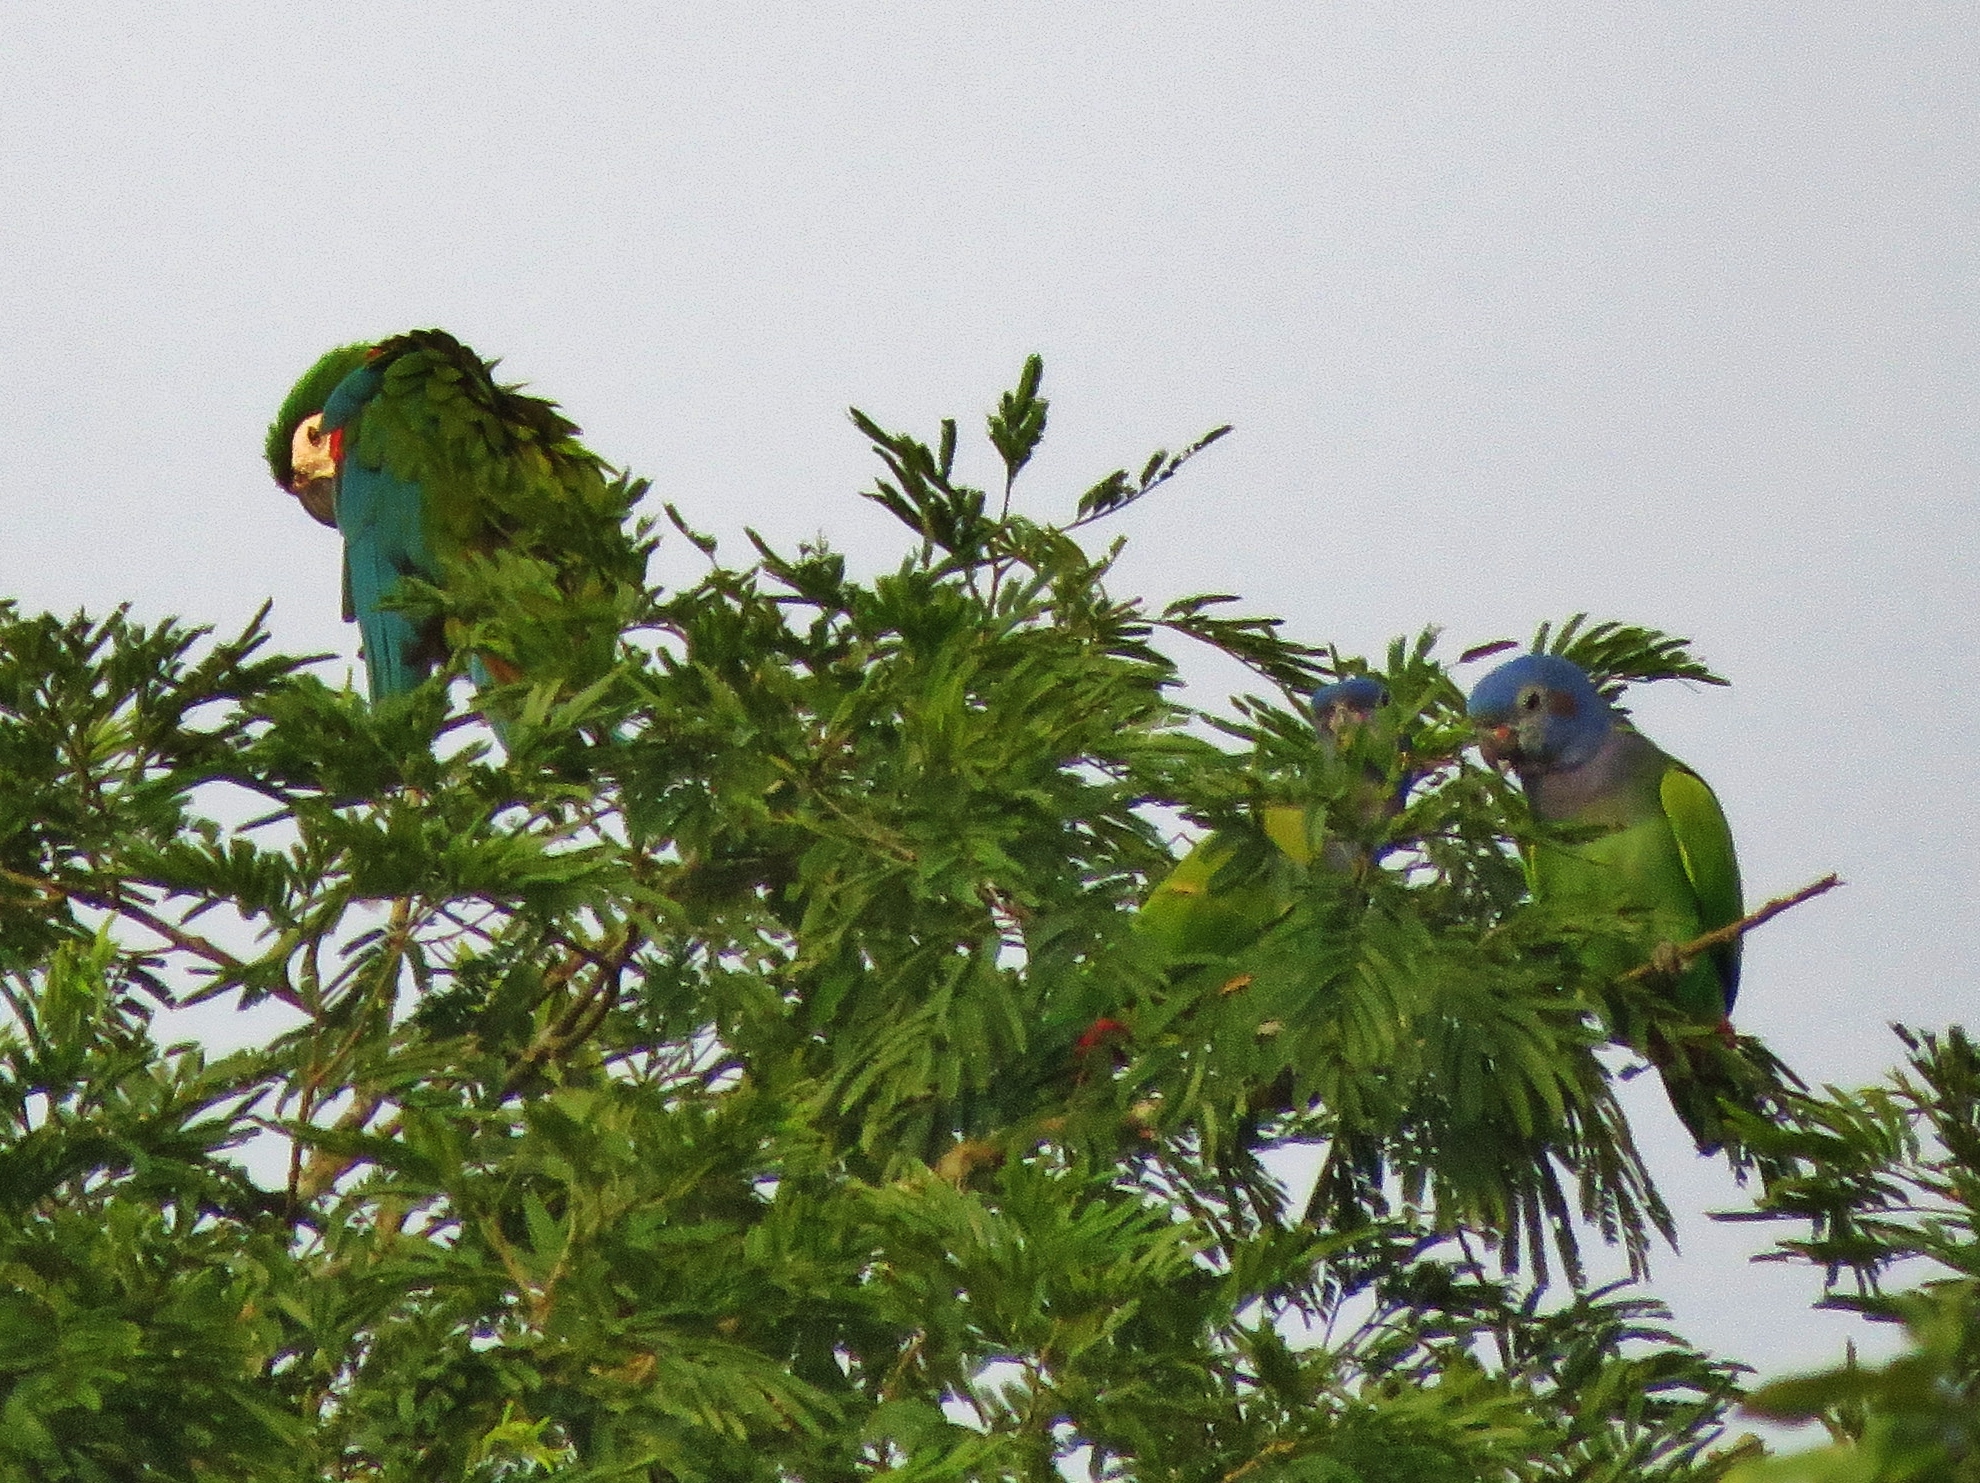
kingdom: Animalia
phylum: Chordata
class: Aves
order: Psittaciformes
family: Psittacidae
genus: Pionus
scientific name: Pionus menstruus
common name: Blue-headed parrot
